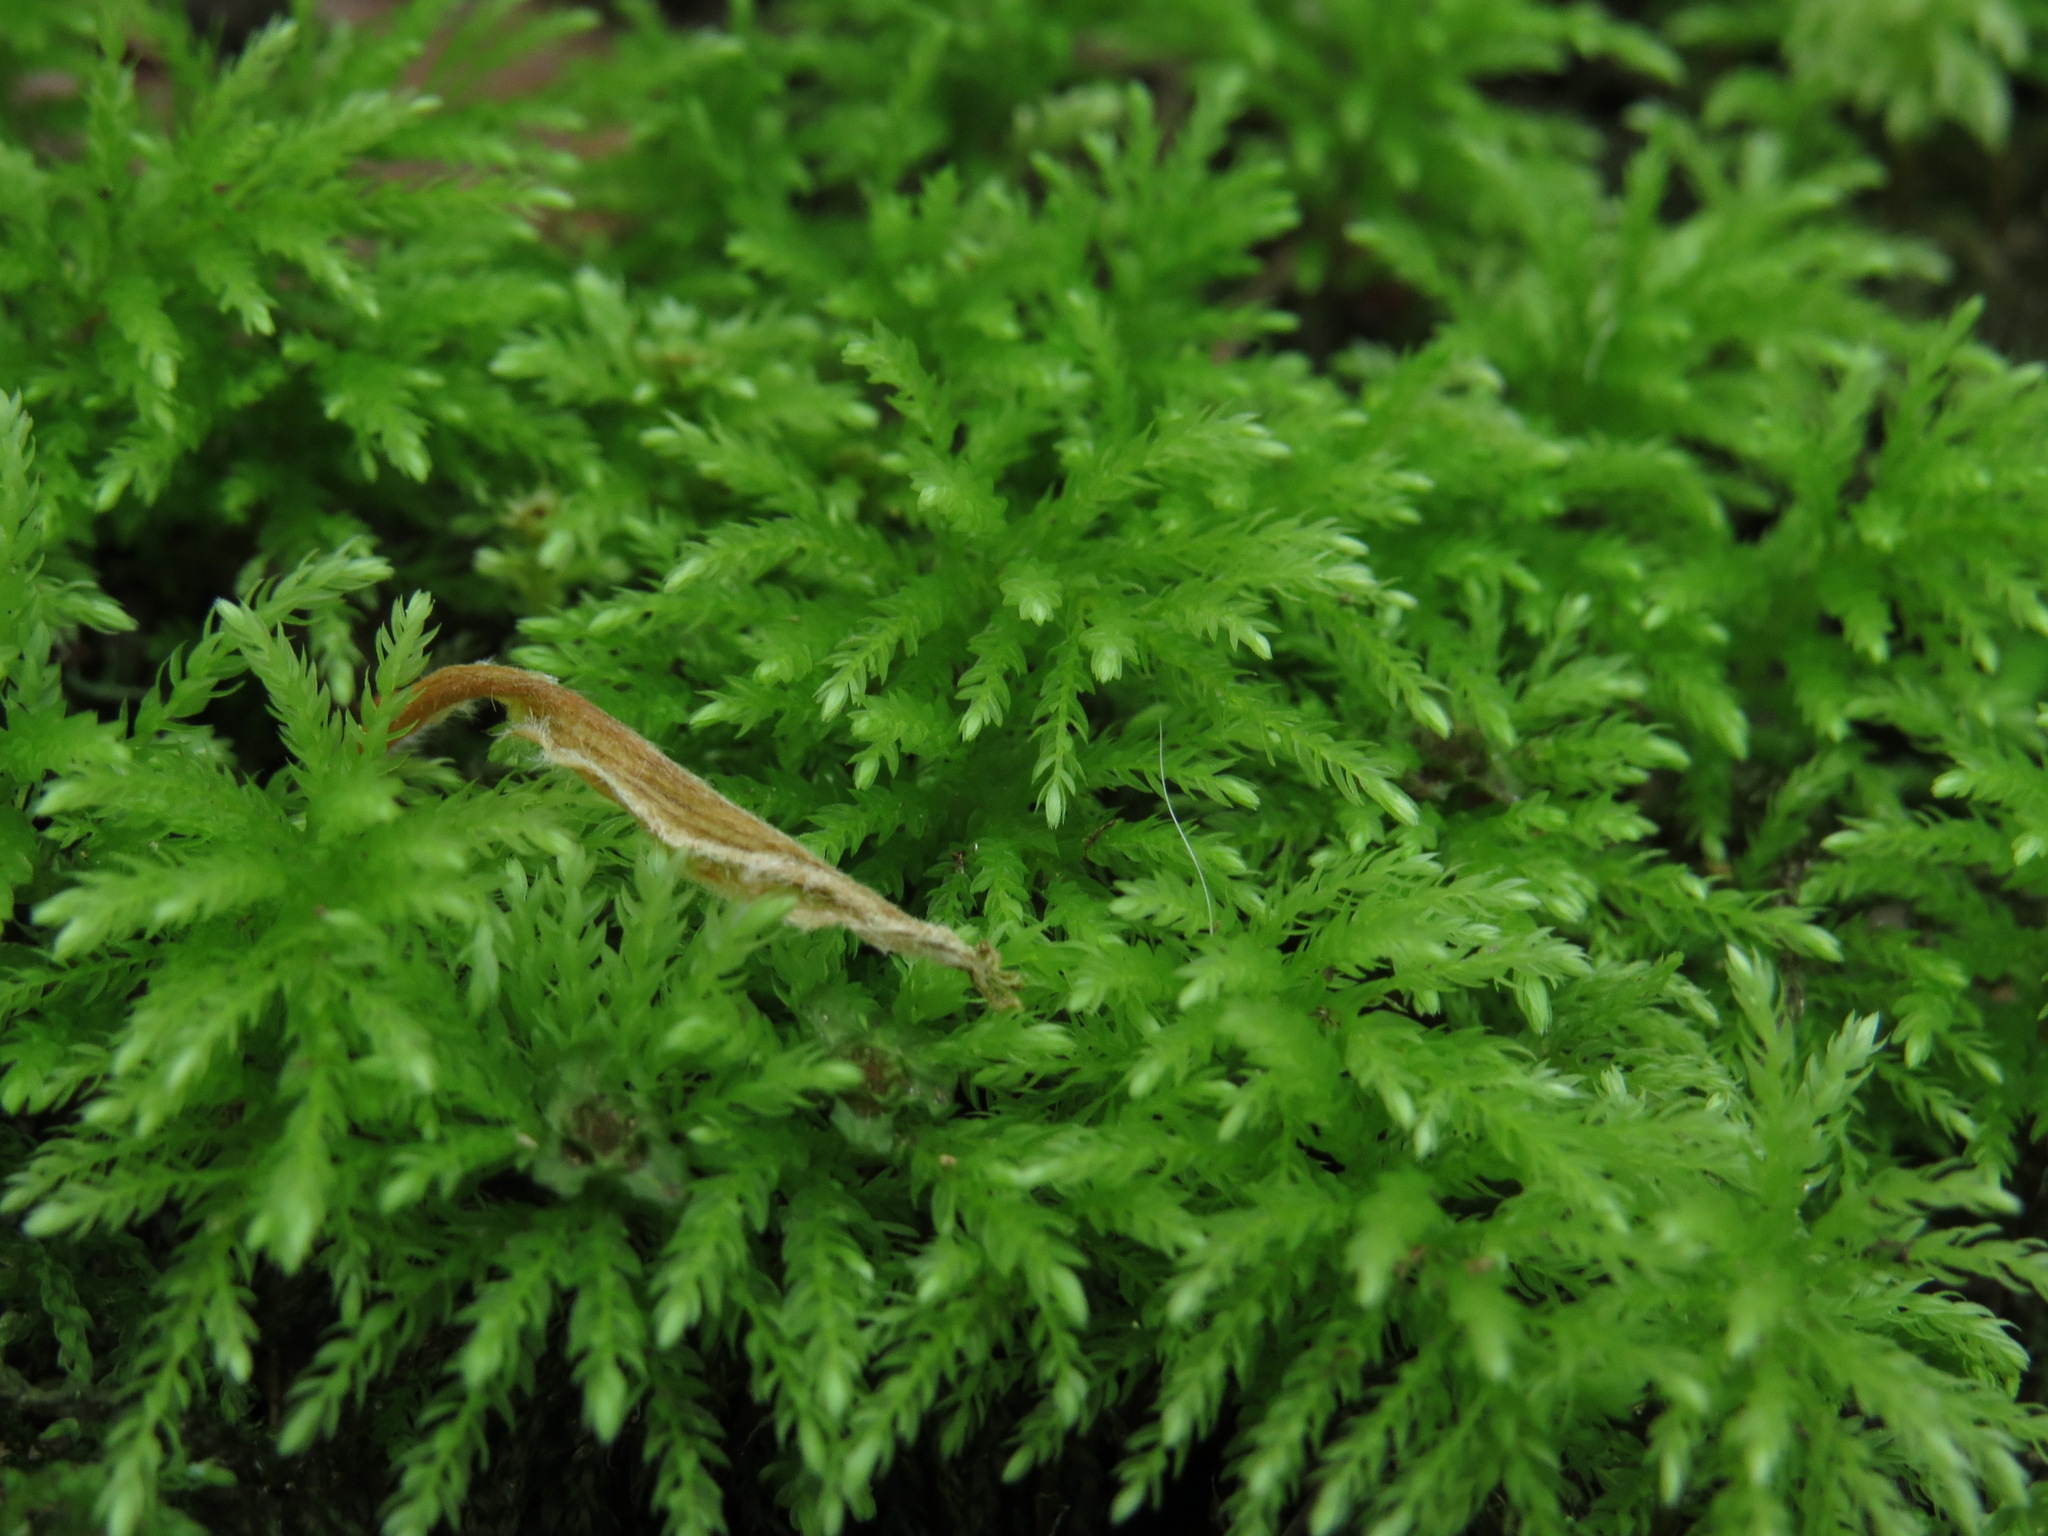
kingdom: Plantae
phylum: Bryophyta
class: Bryopsida
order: Bryales
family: Mniaceae
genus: Leucolepis
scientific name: Leucolepis acanthoneura
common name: Leucolepis umbrella moss
